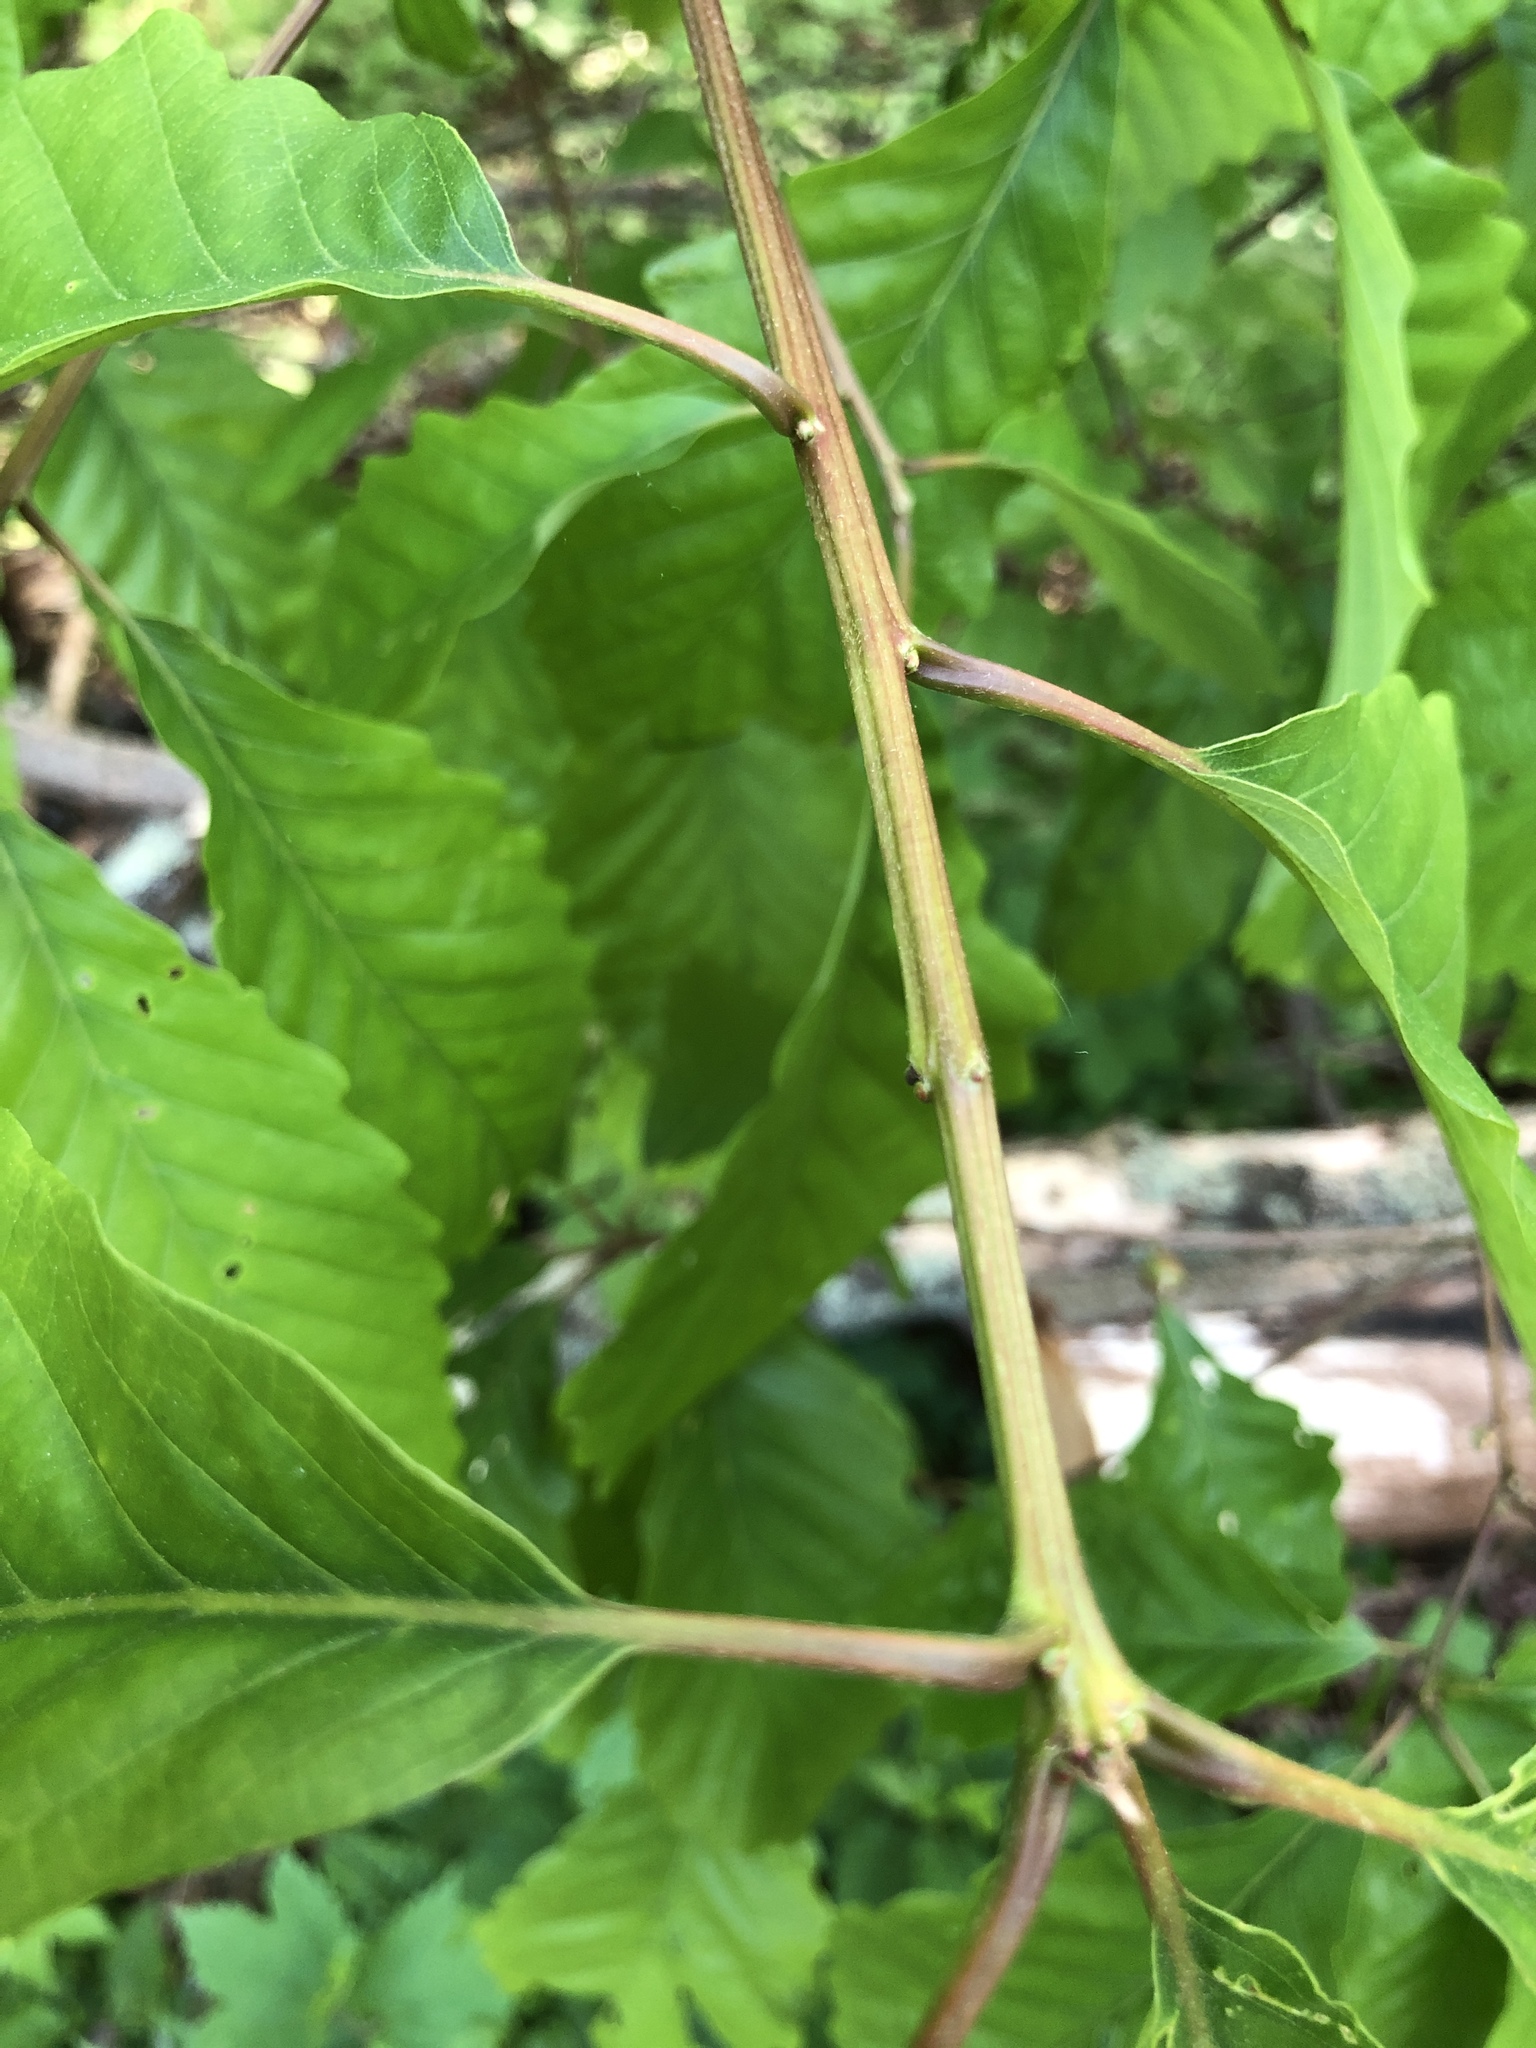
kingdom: Plantae
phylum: Tracheophyta
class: Magnoliopsida
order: Fagales
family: Fagaceae
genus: Quercus
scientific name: Quercus montana
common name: Chestnut oak
